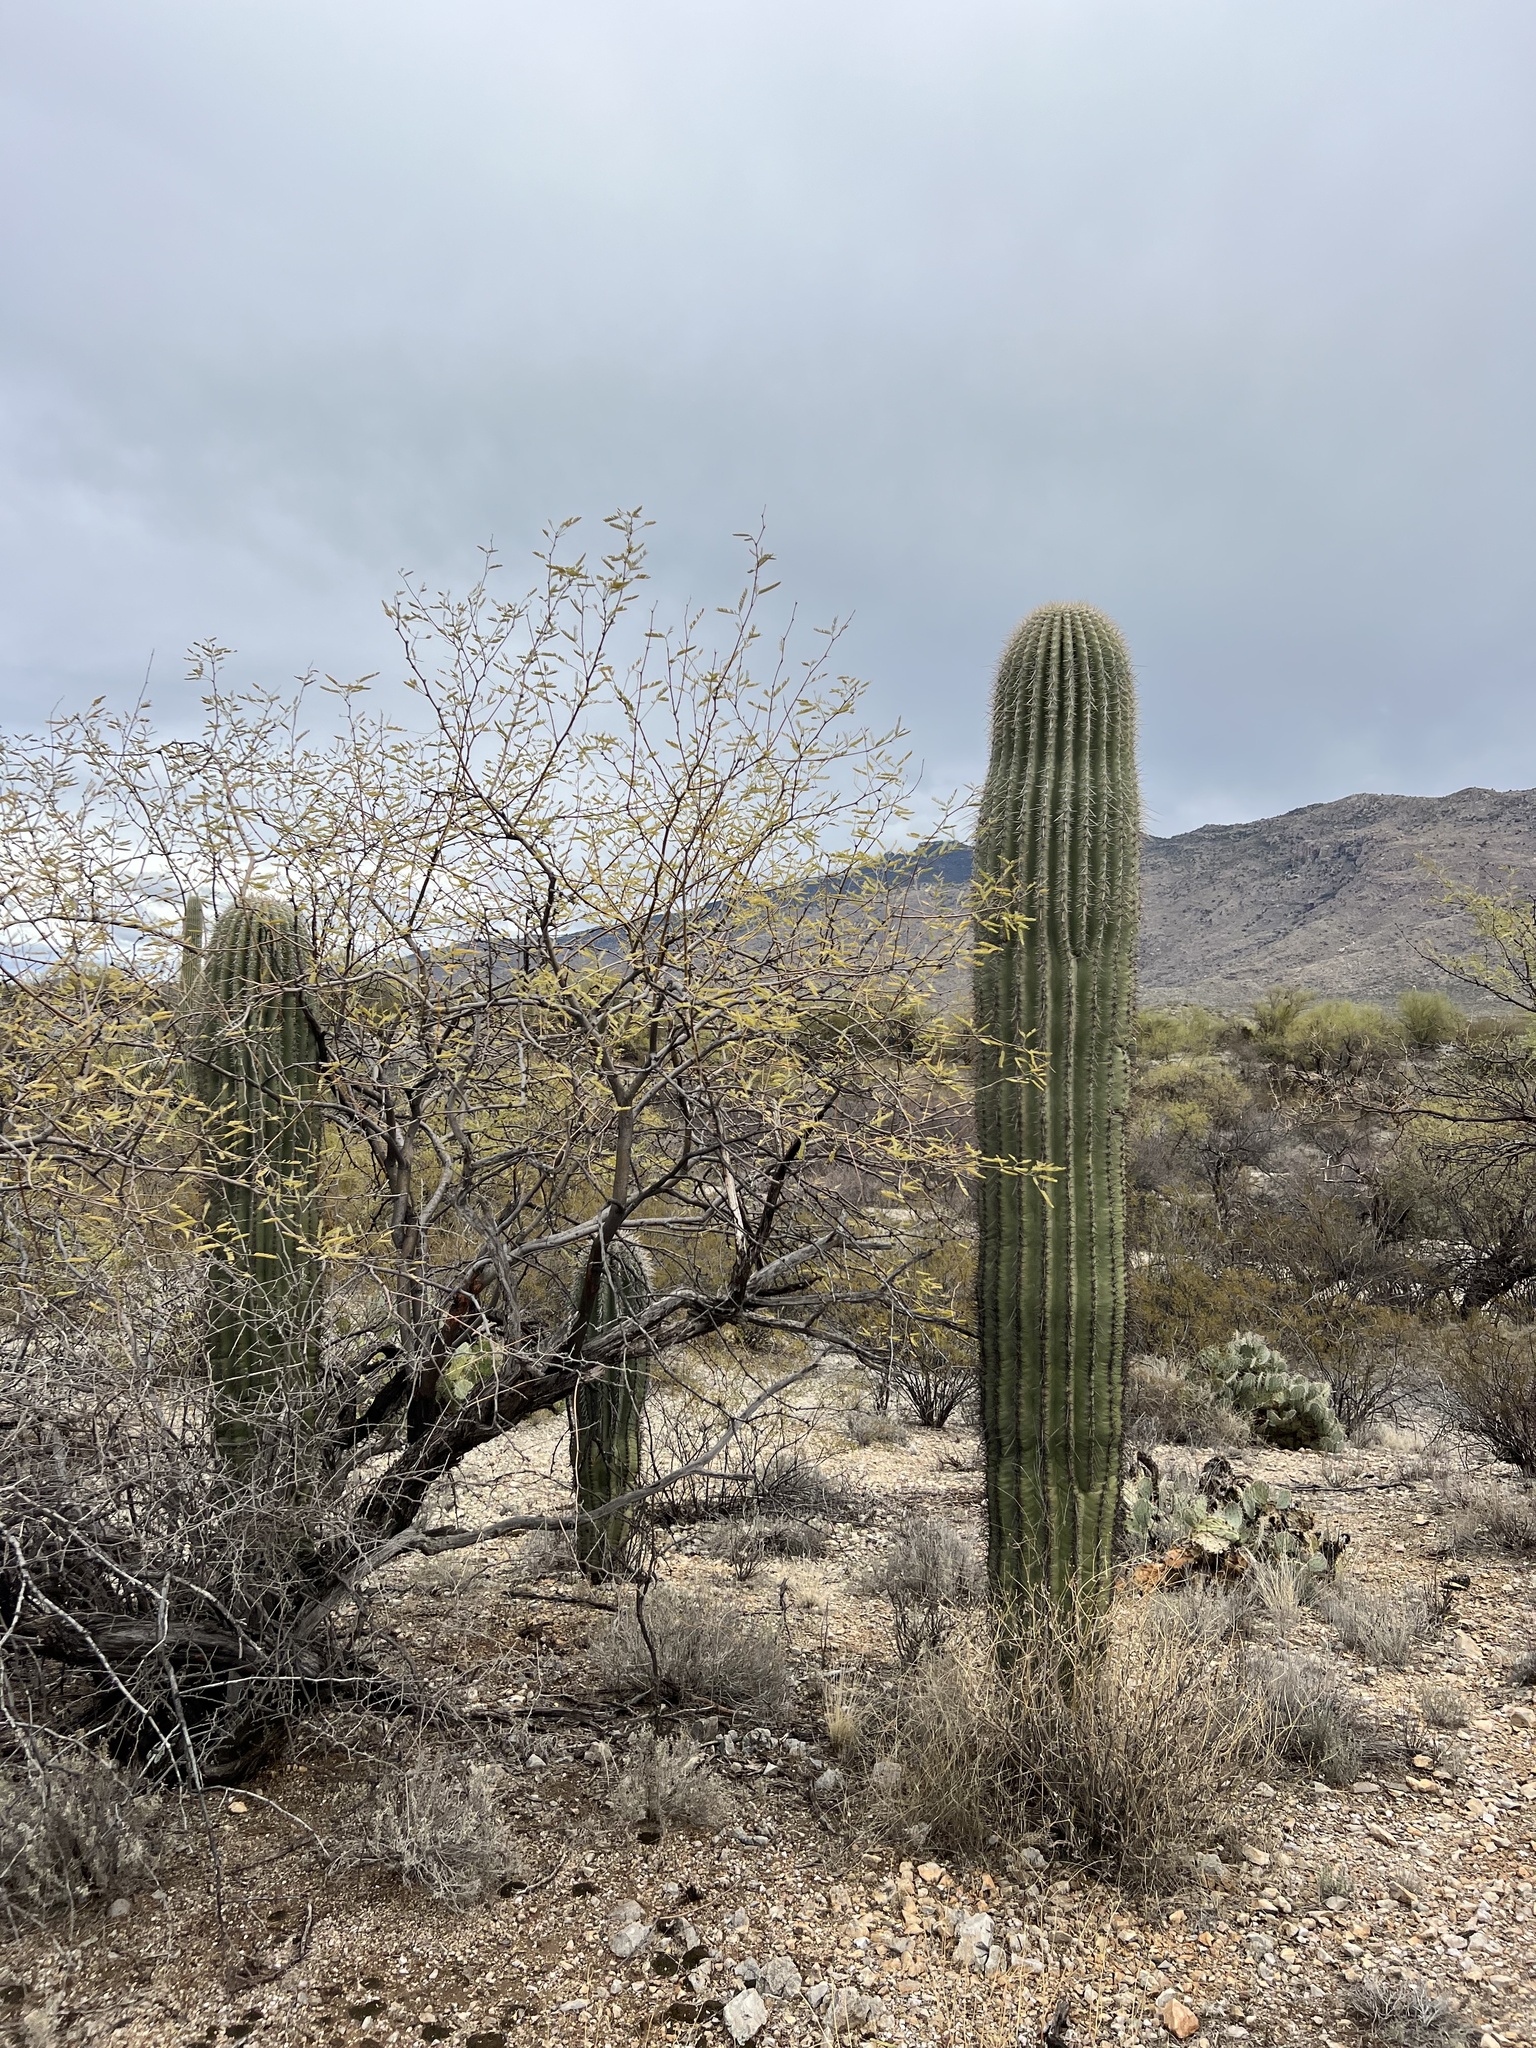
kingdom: Plantae
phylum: Tracheophyta
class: Magnoliopsida
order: Caryophyllales
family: Cactaceae
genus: Carnegiea
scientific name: Carnegiea gigantea
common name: Saguaro
